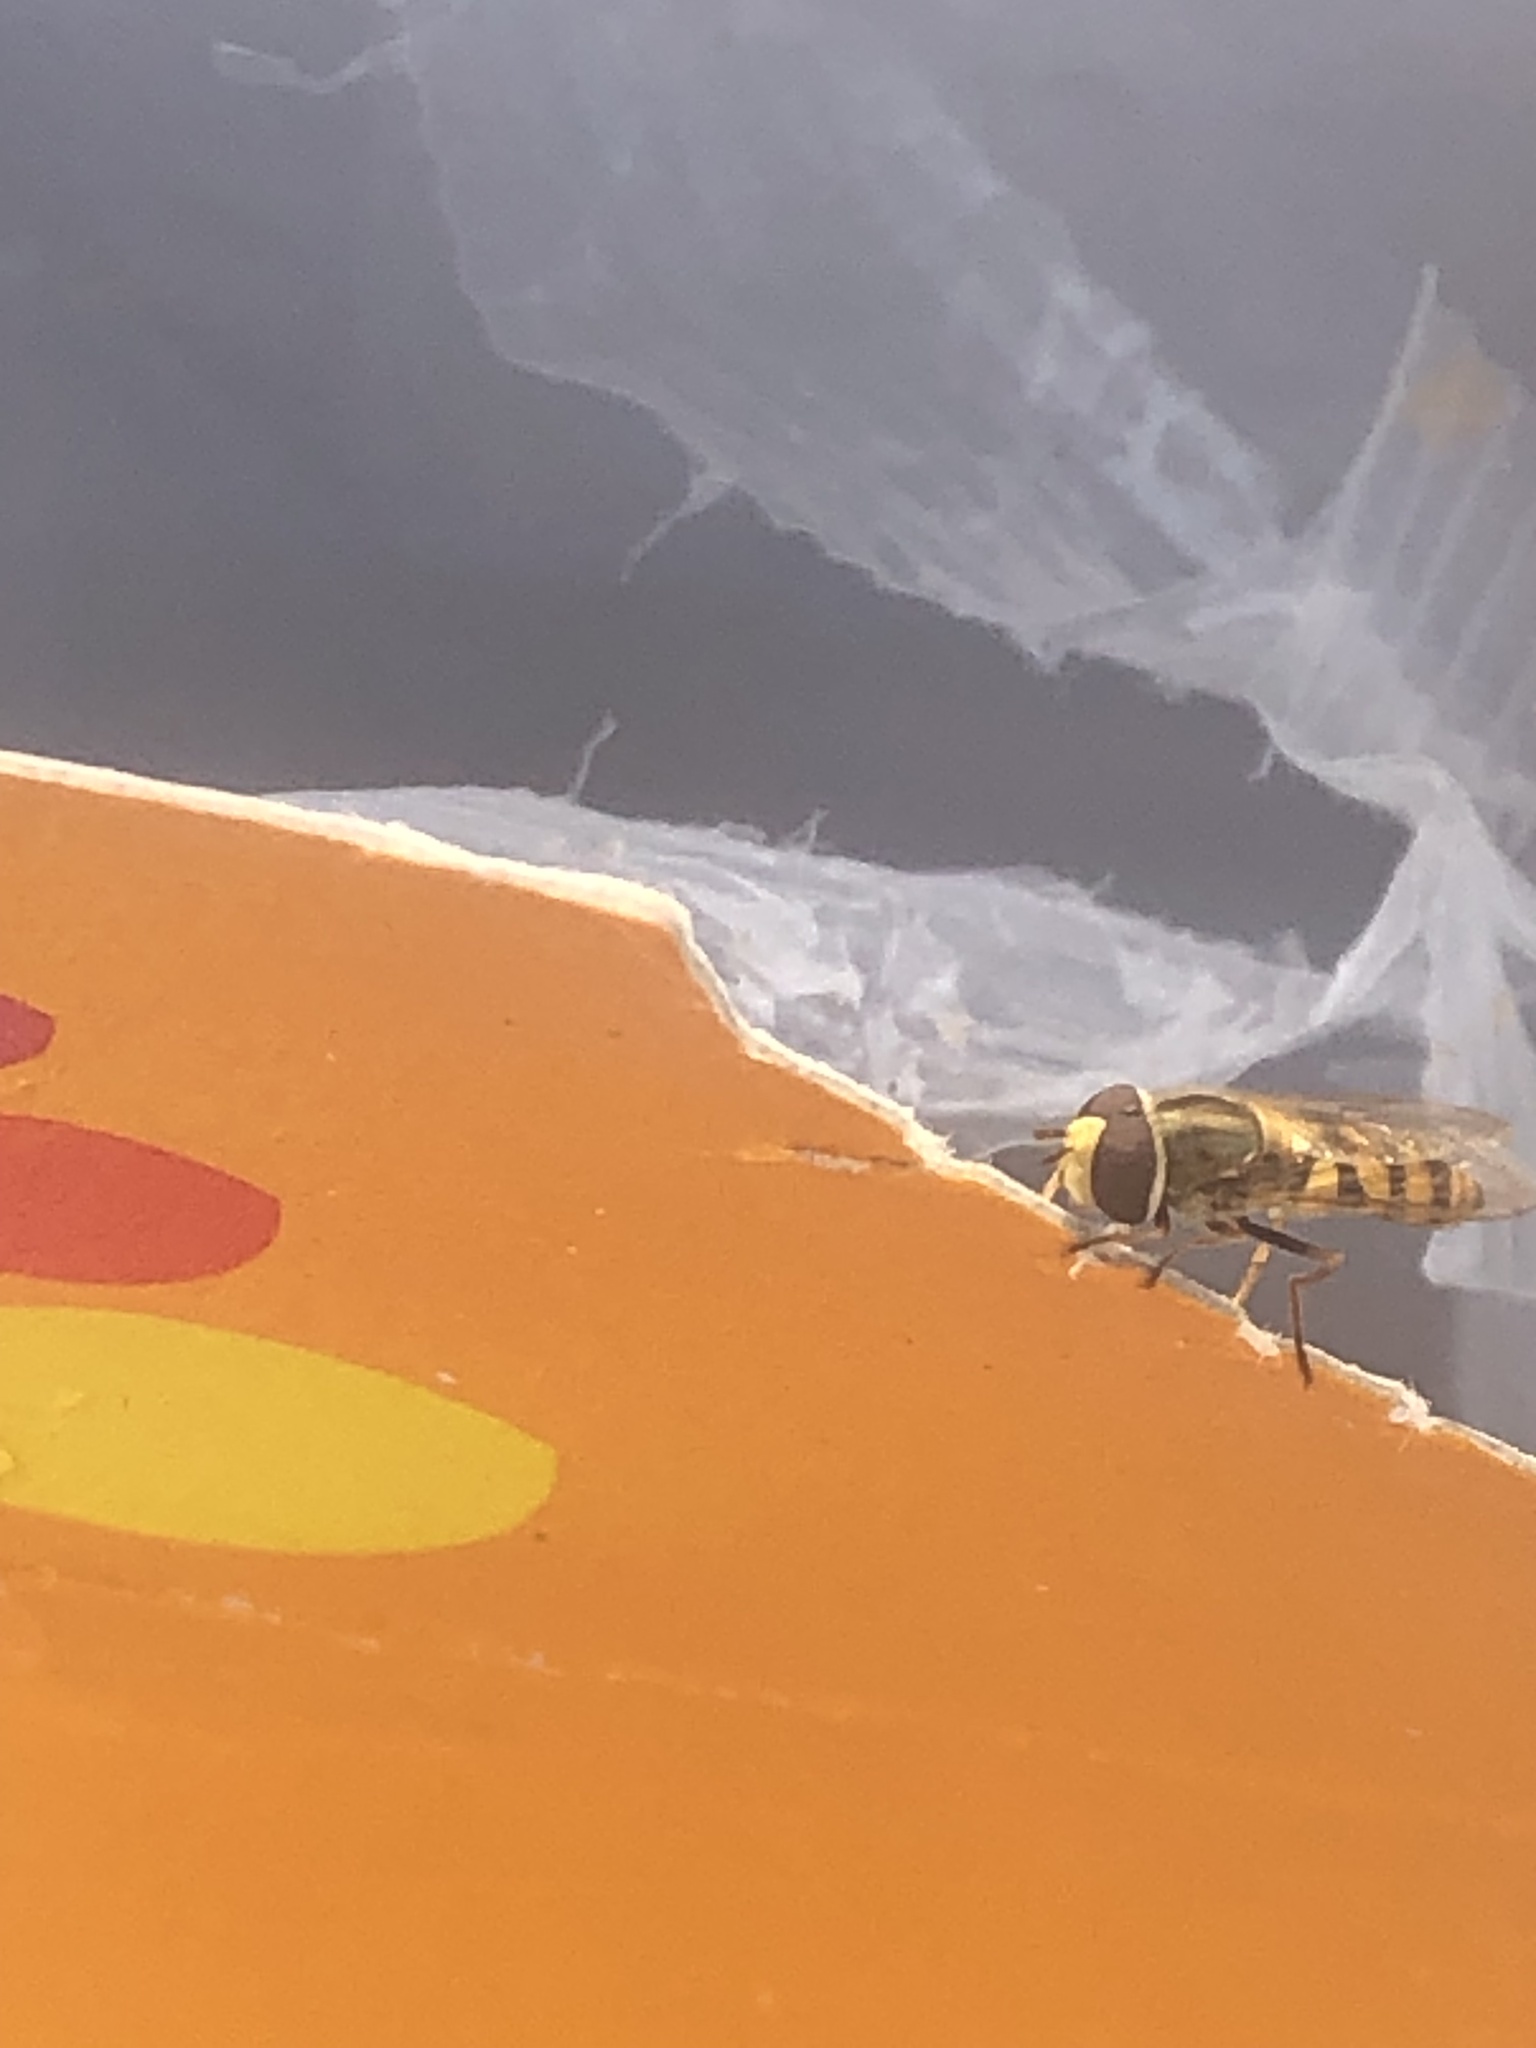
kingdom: Animalia
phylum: Arthropoda
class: Insecta
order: Diptera
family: Syrphidae
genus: Eupeodes
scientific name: Eupeodes corollae
